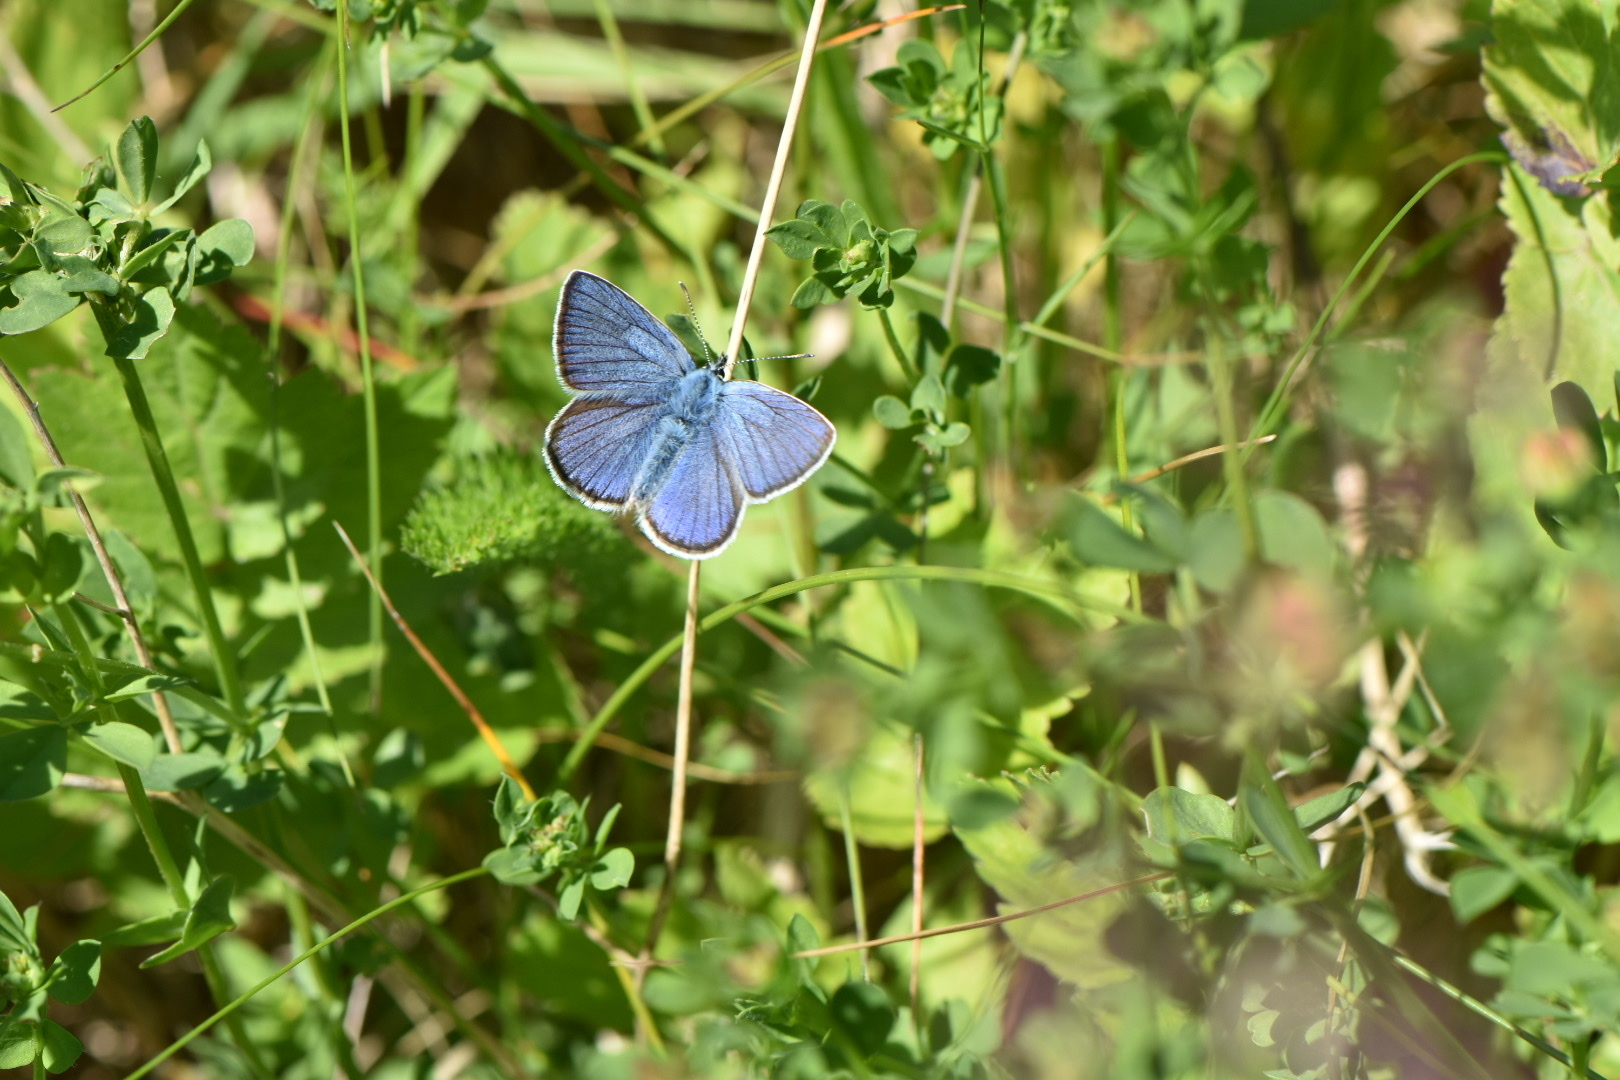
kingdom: Animalia
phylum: Arthropoda
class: Insecta
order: Lepidoptera
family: Lycaenidae
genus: Cyaniris
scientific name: Cyaniris semiargus
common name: Mazarine blue
